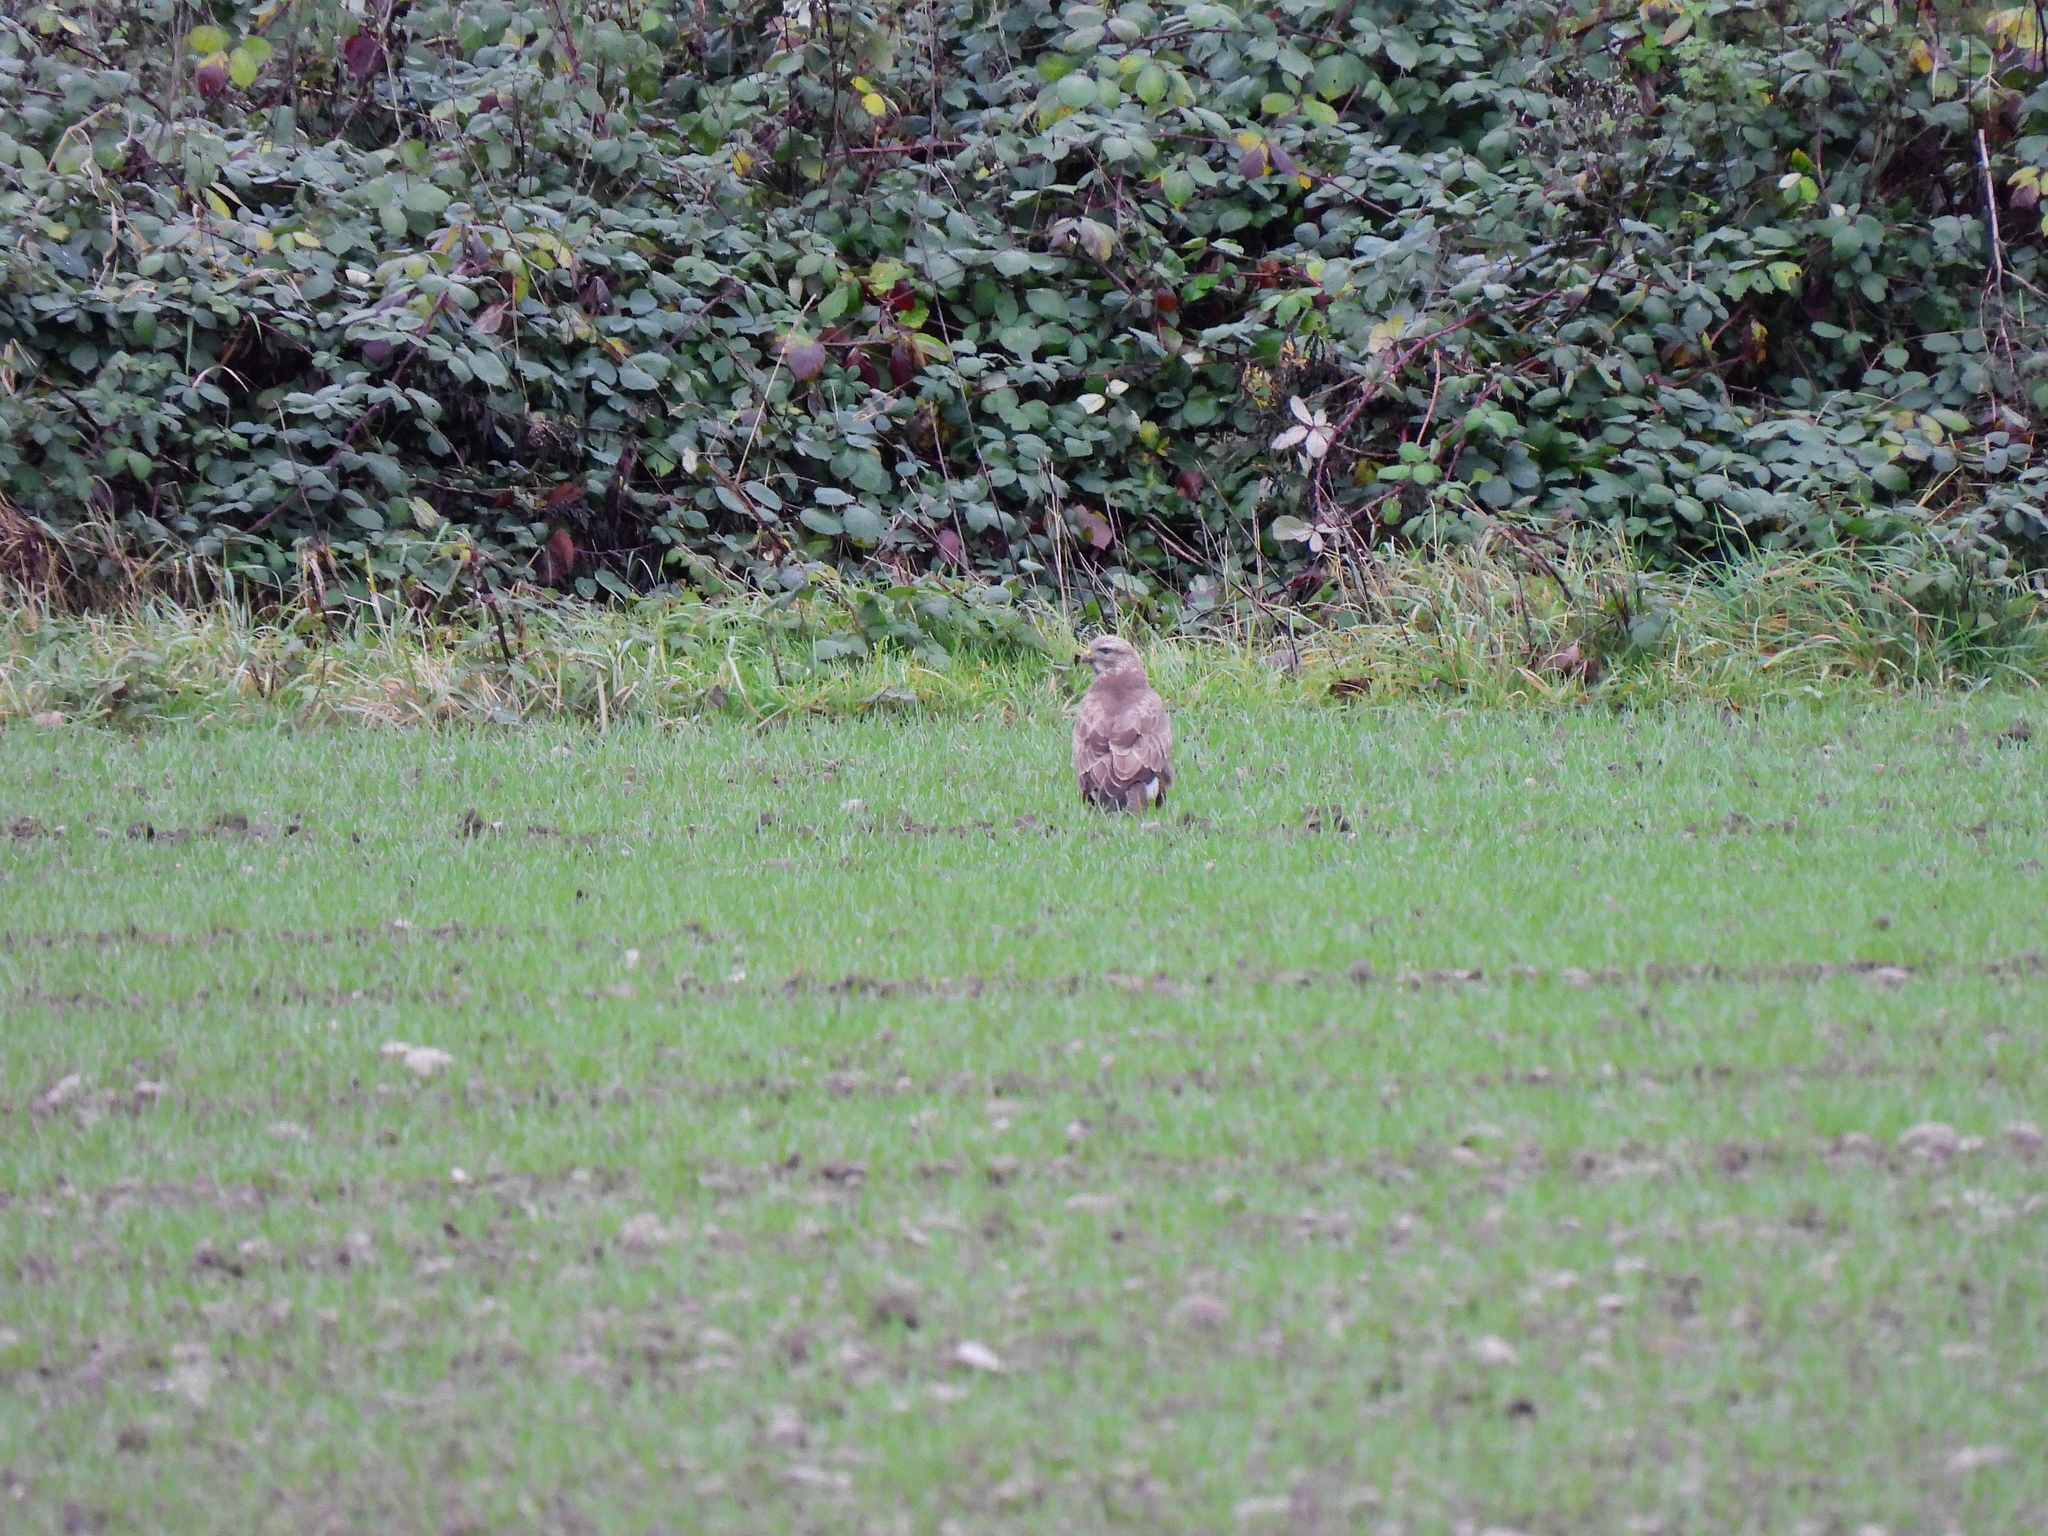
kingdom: Animalia
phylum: Chordata
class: Aves
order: Accipitriformes
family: Accipitridae
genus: Buteo
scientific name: Buteo buteo
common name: Common buzzard
